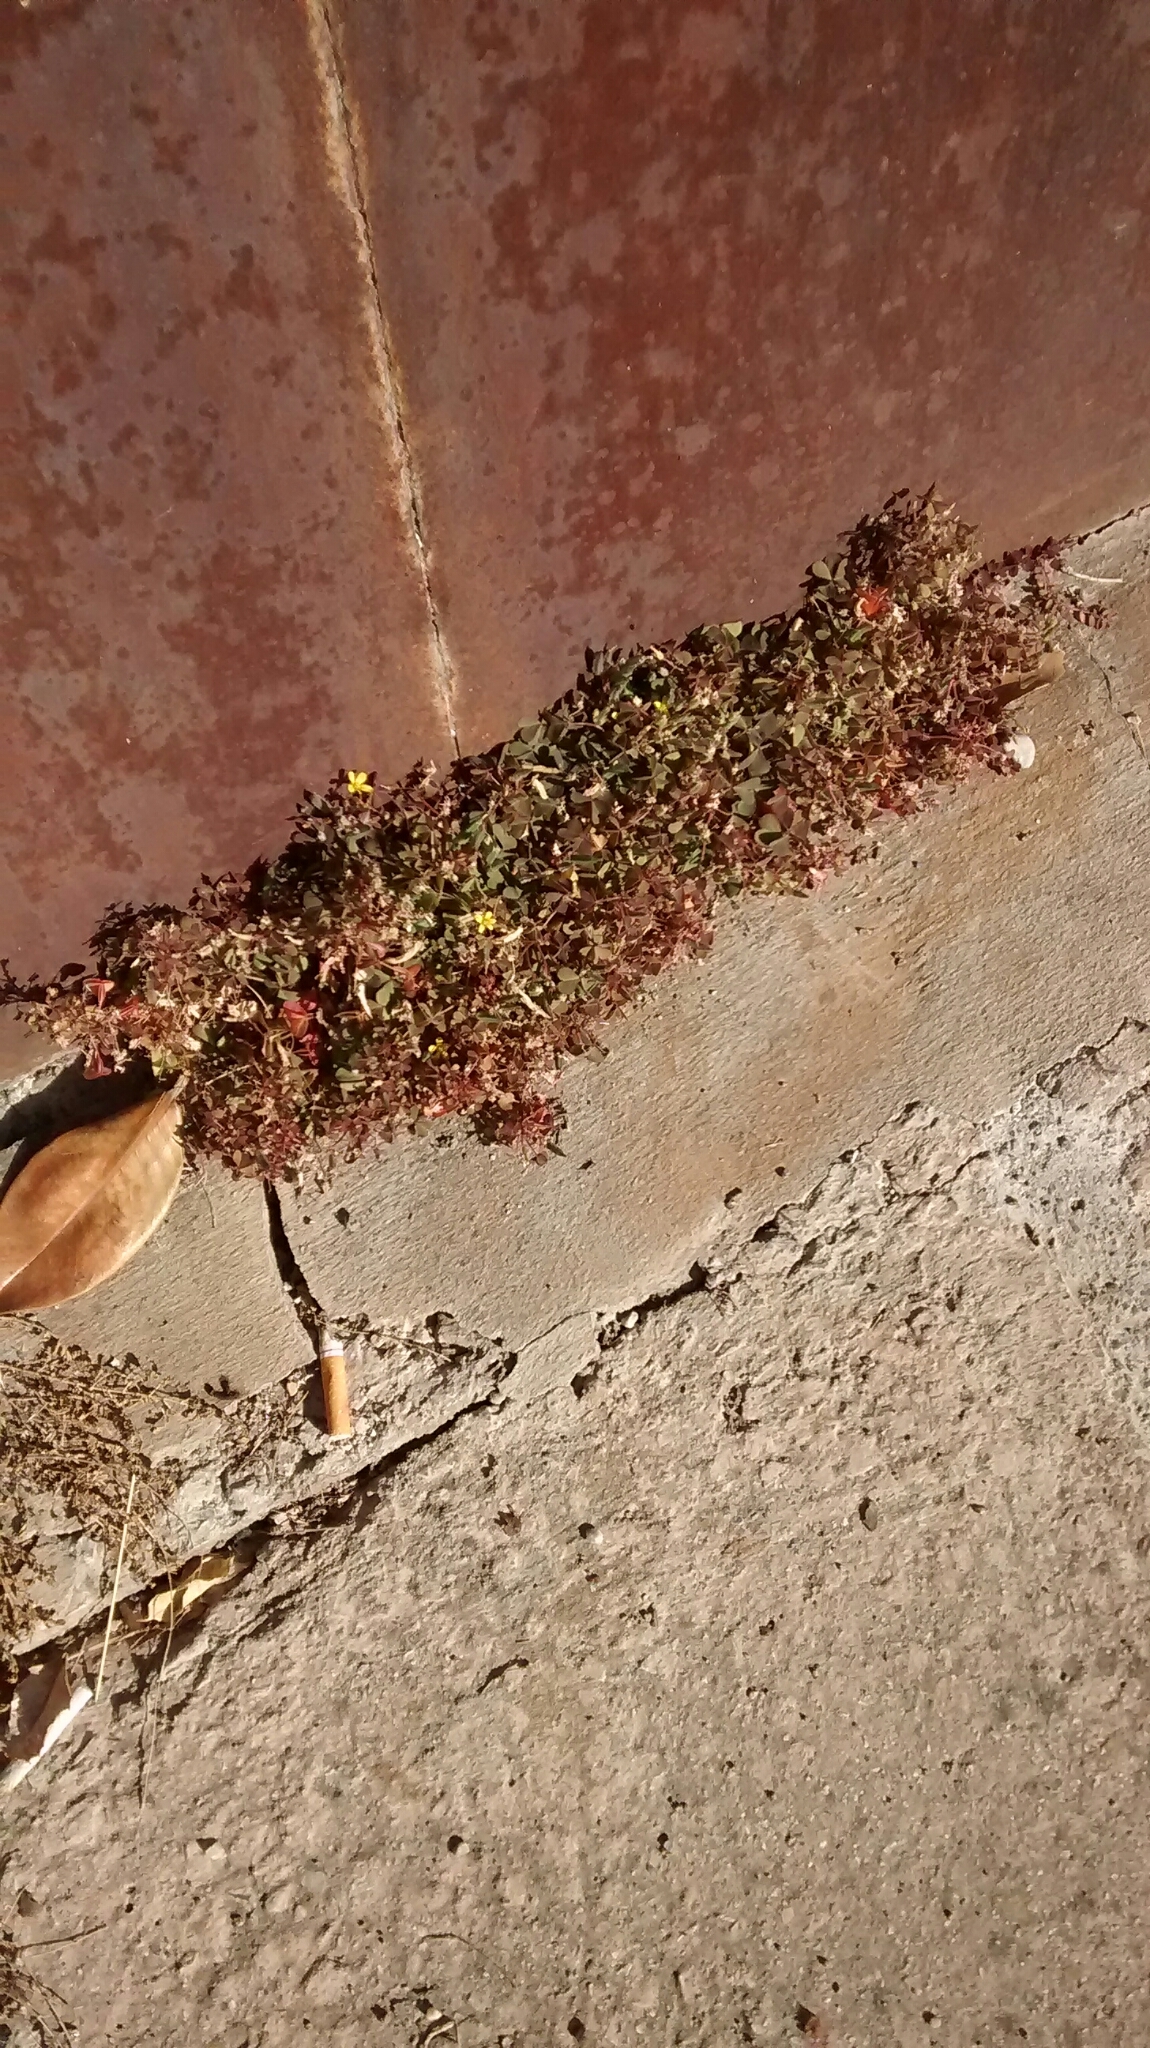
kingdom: Plantae
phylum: Tracheophyta
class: Magnoliopsida
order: Oxalidales
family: Oxalidaceae
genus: Oxalis
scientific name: Oxalis corniculata
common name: Procumbent yellow-sorrel
